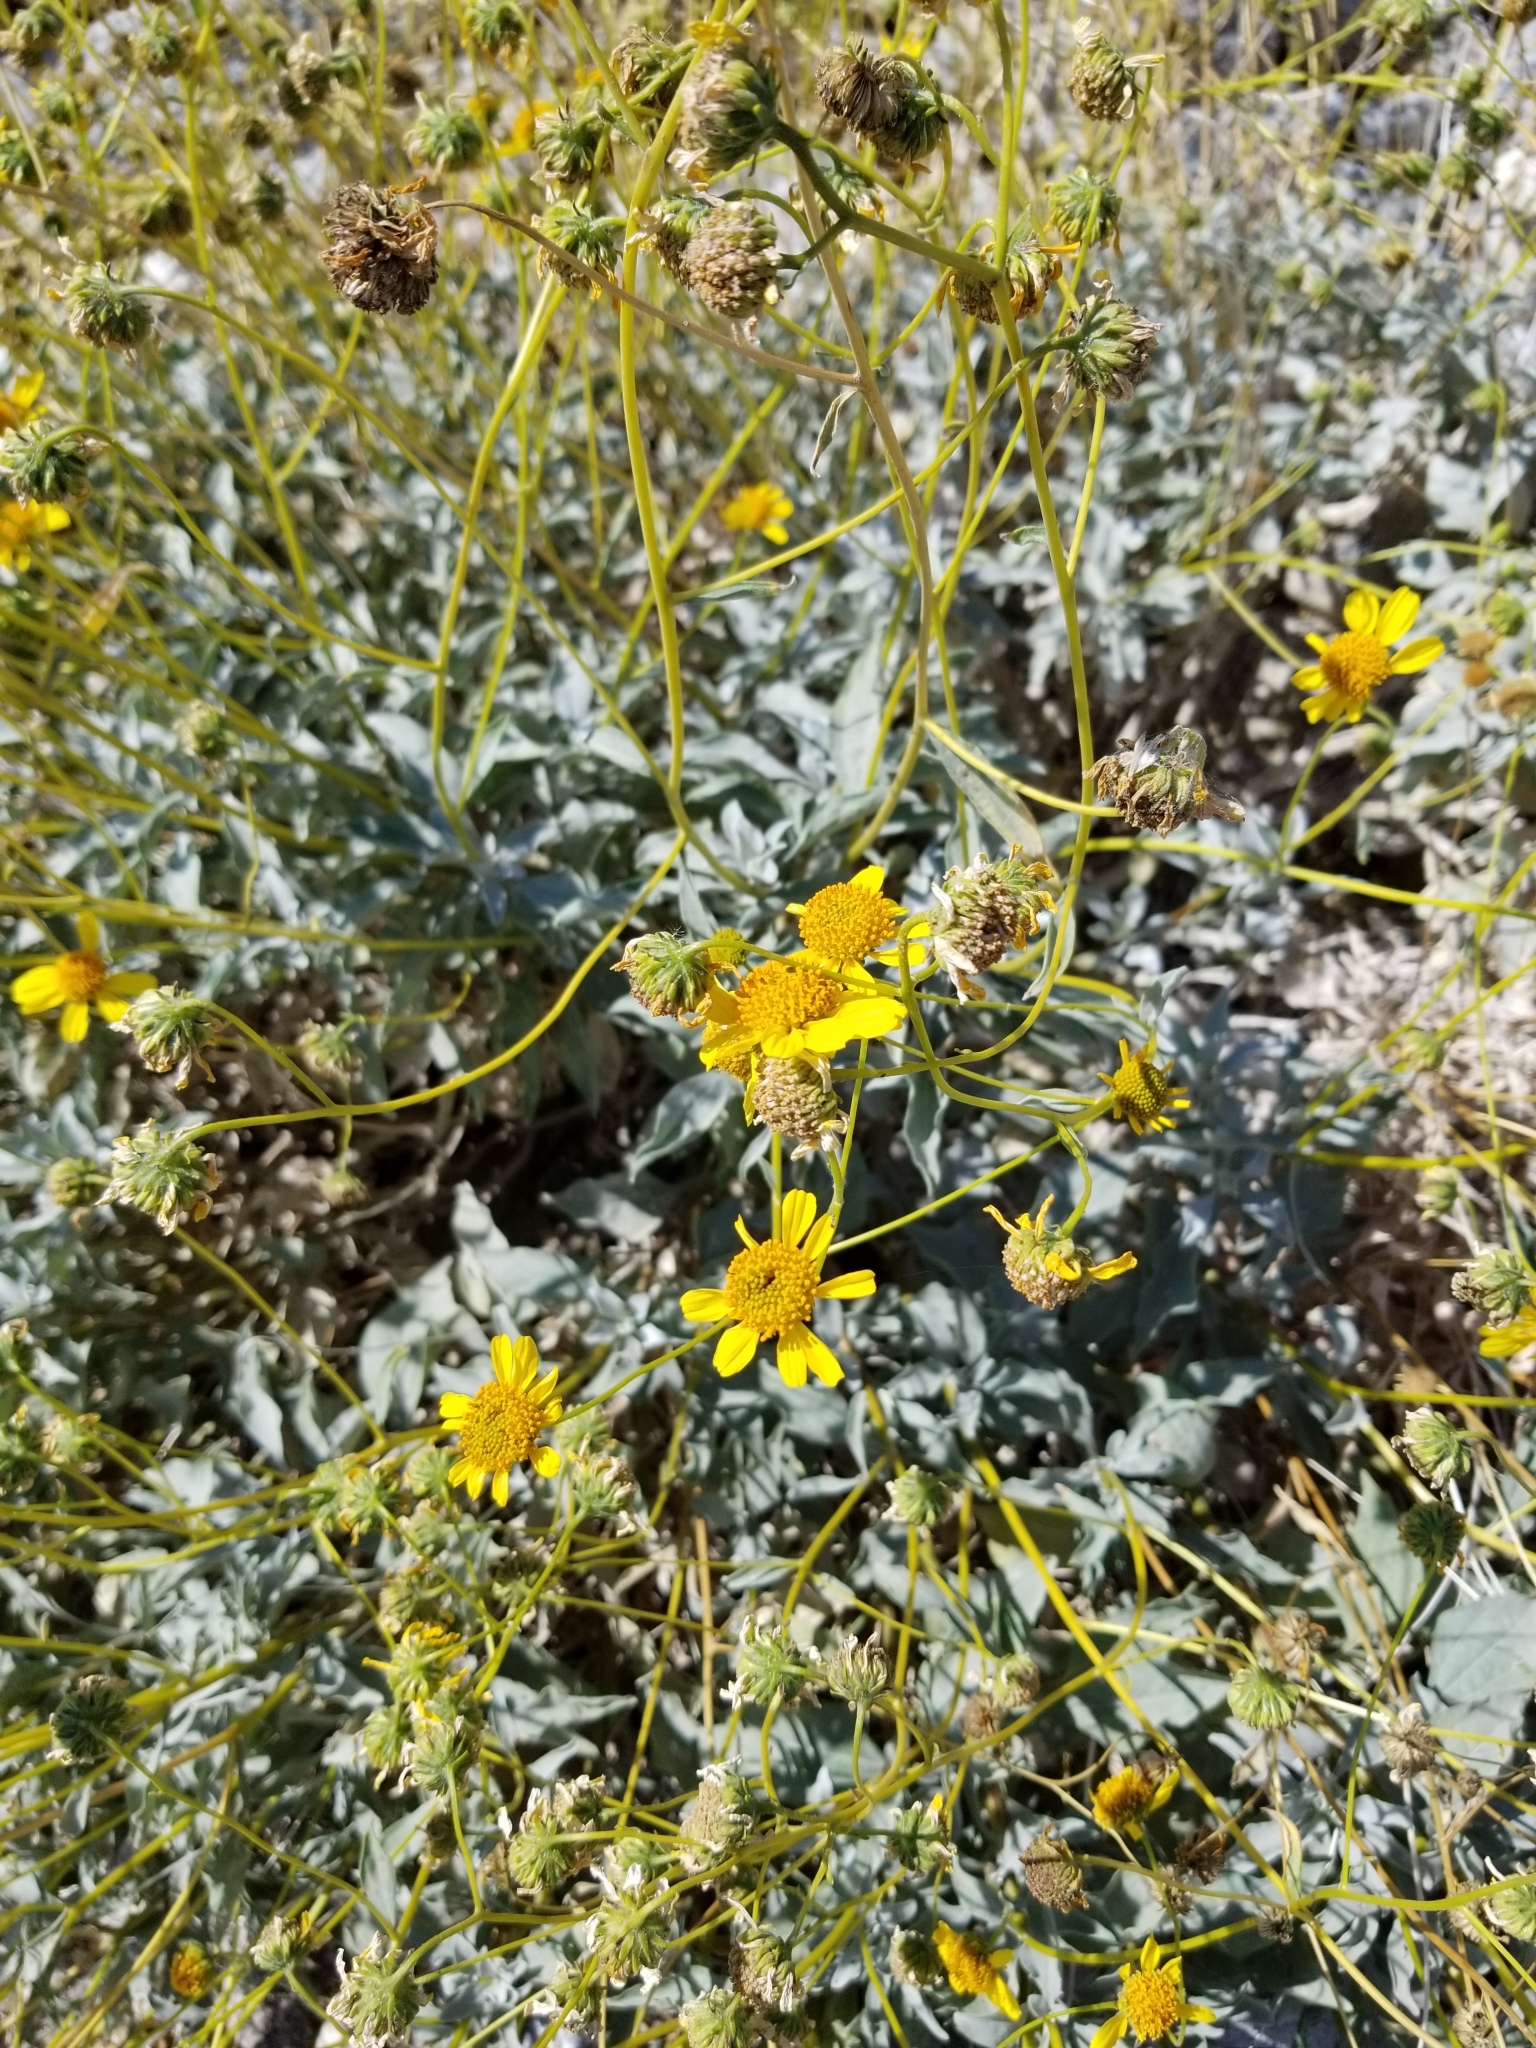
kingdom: Plantae
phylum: Tracheophyta
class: Magnoliopsida
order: Asterales
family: Asteraceae
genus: Encelia
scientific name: Encelia farinosa
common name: Brittlebush
